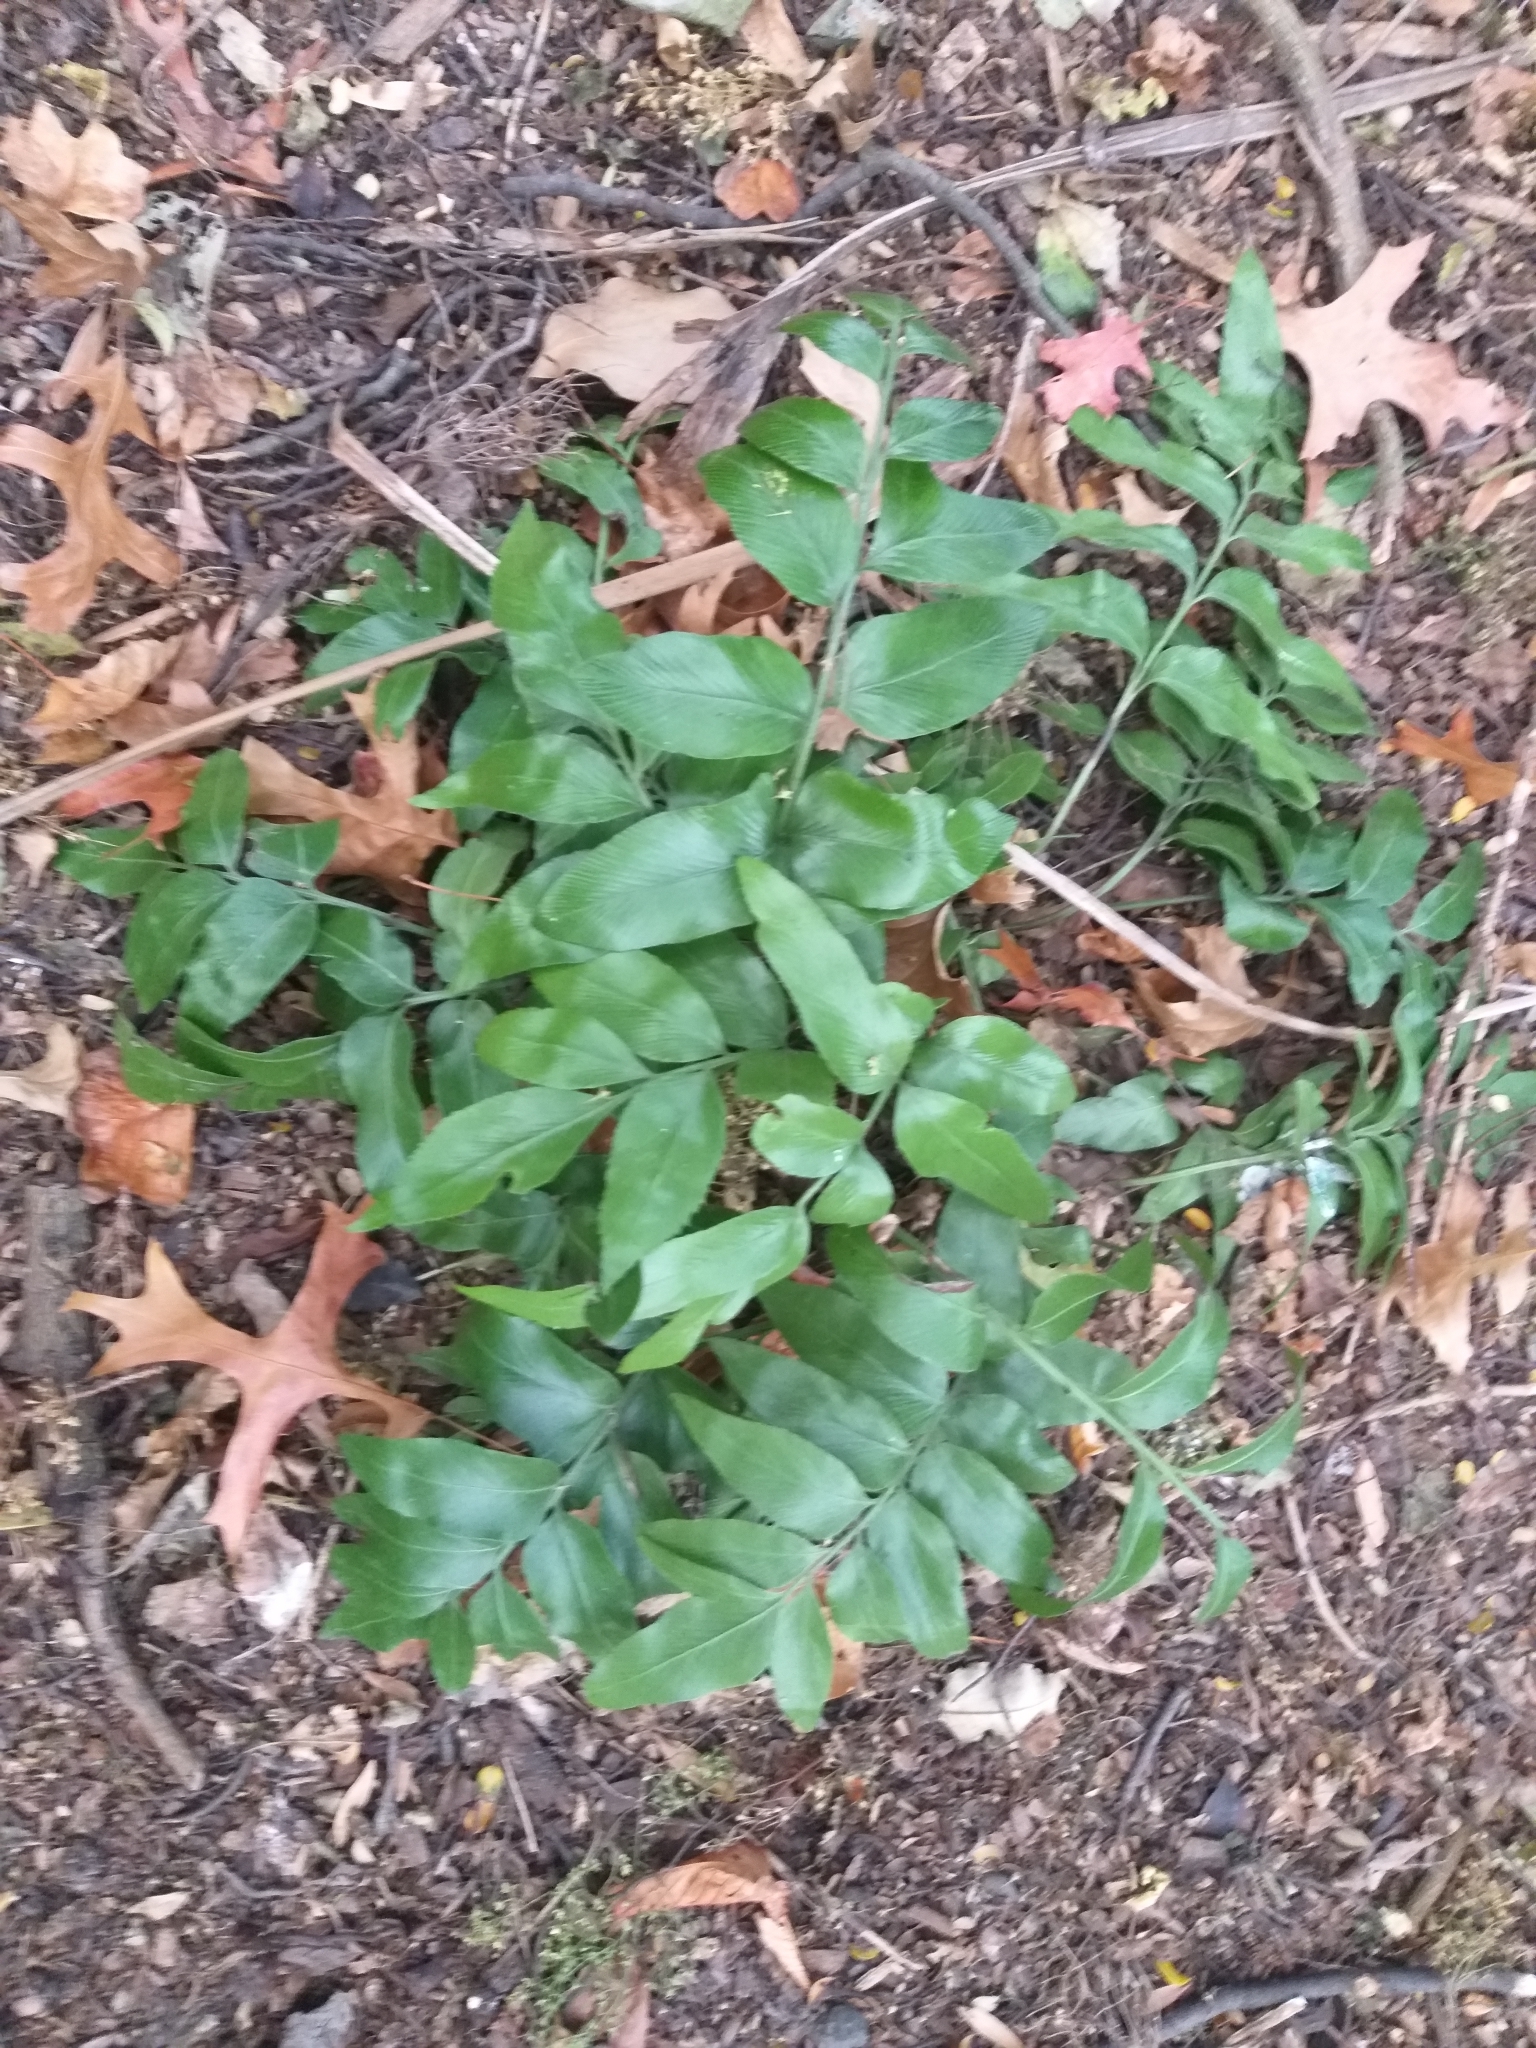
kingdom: Plantae
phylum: Tracheophyta
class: Polypodiopsida
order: Polypodiales
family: Aspleniaceae
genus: Asplenium
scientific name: Asplenium oblongifolium
